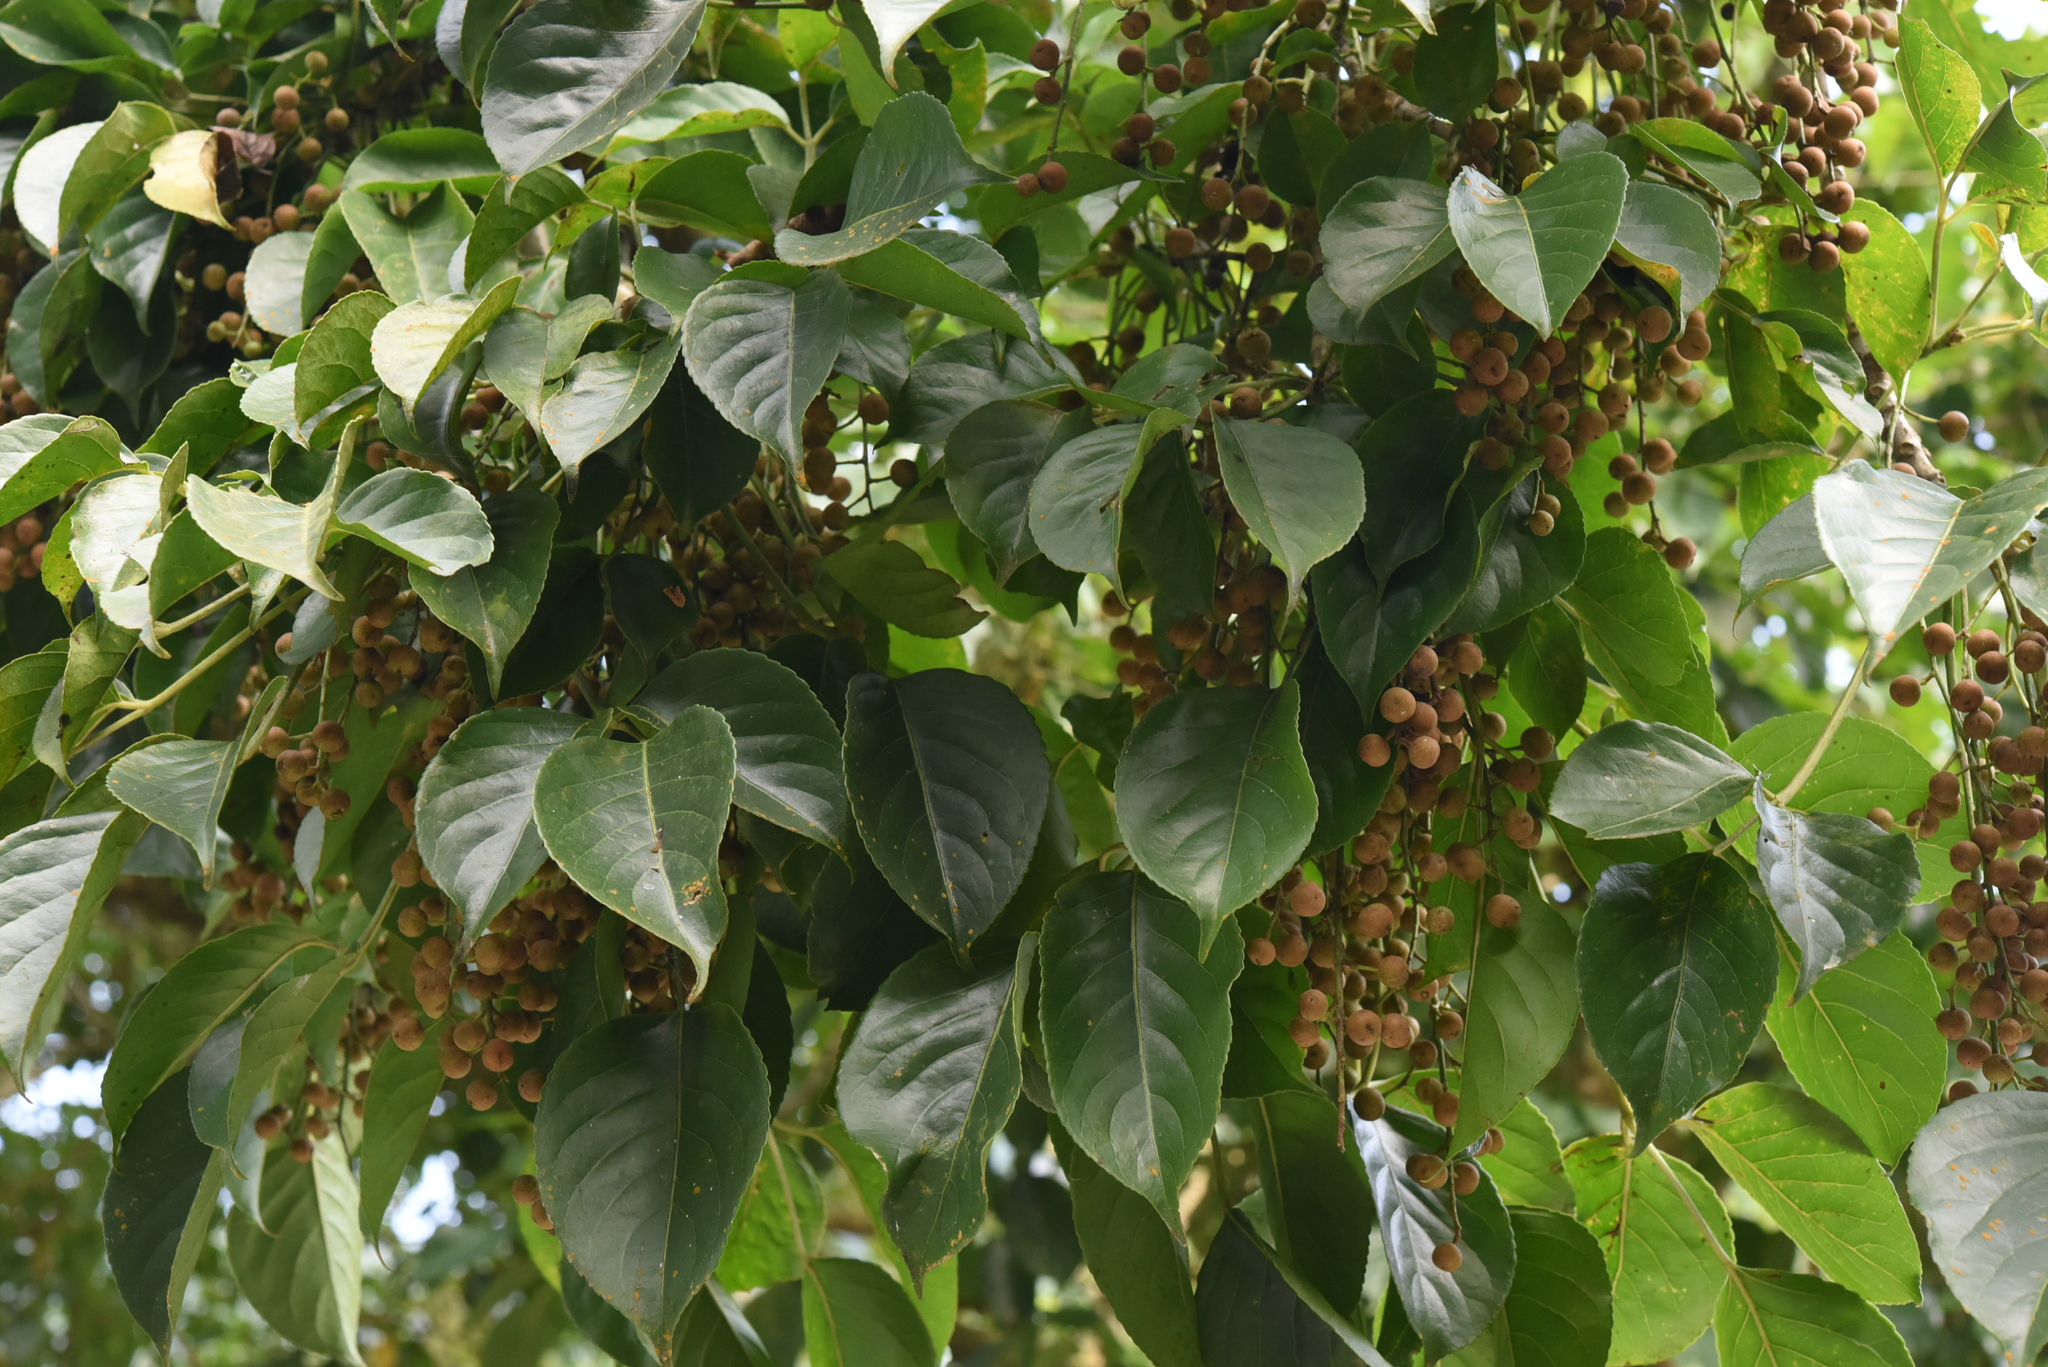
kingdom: Plantae
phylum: Tracheophyta
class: Magnoliopsida
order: Malpighiales
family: Phyllanthaceae
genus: Bischofia
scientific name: Bischofia javanica
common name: Javanese bishopwood
